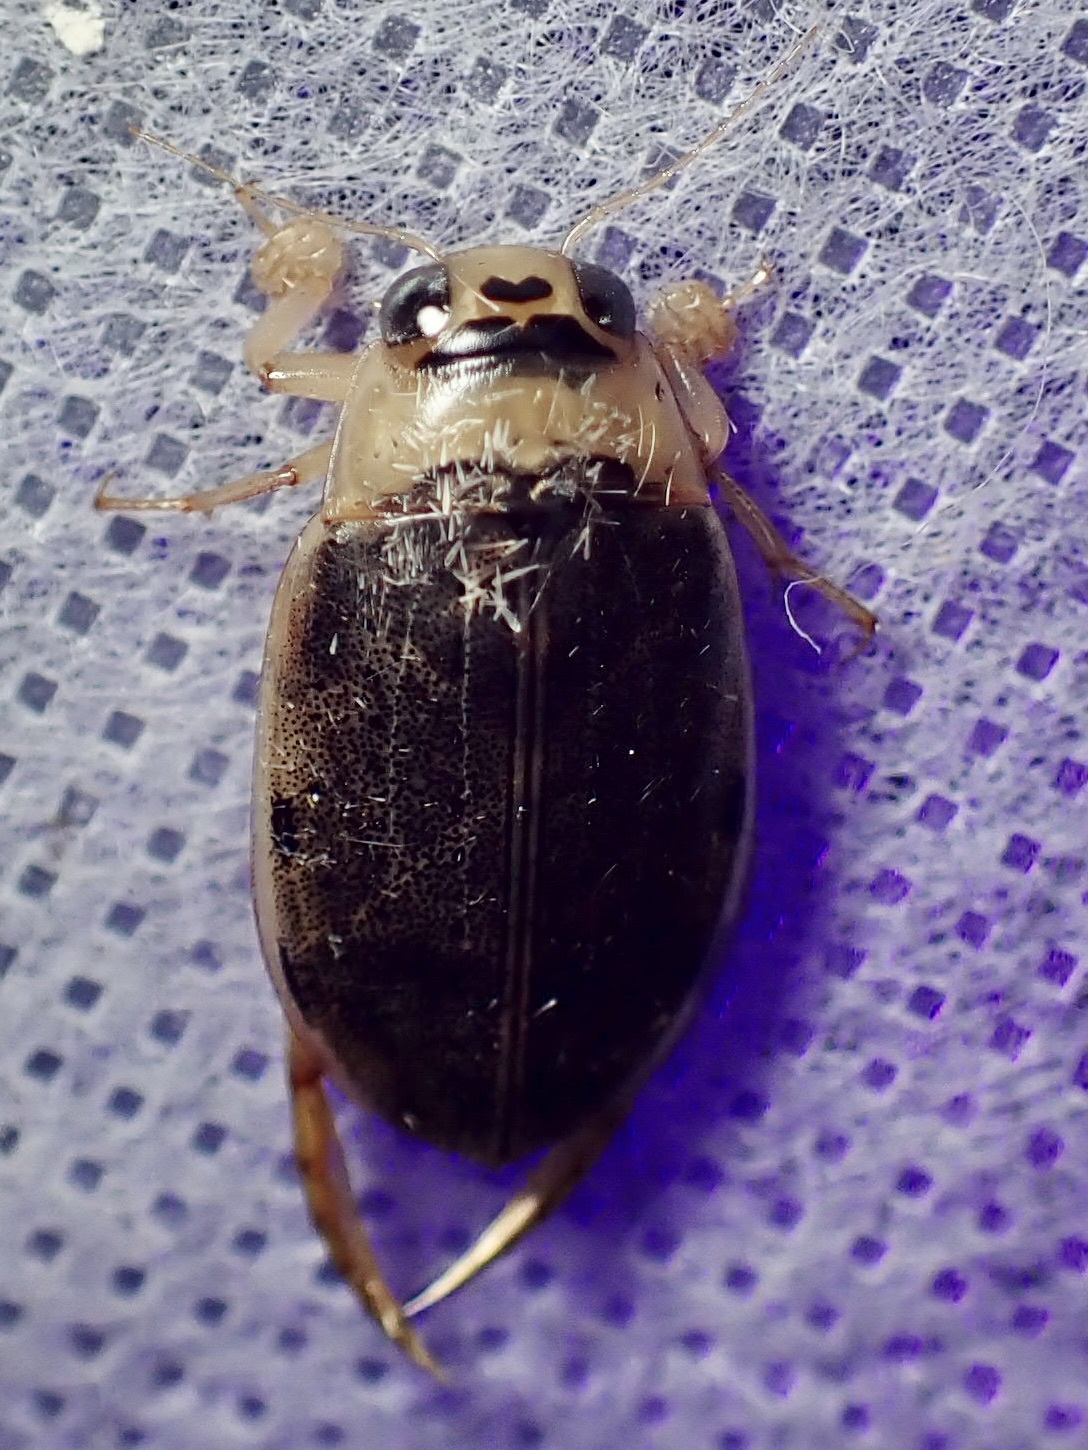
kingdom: Animalia
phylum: Arthropoda
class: Insecta
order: Coleoptera
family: Dytiscidae
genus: Eretes
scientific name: Eretes
